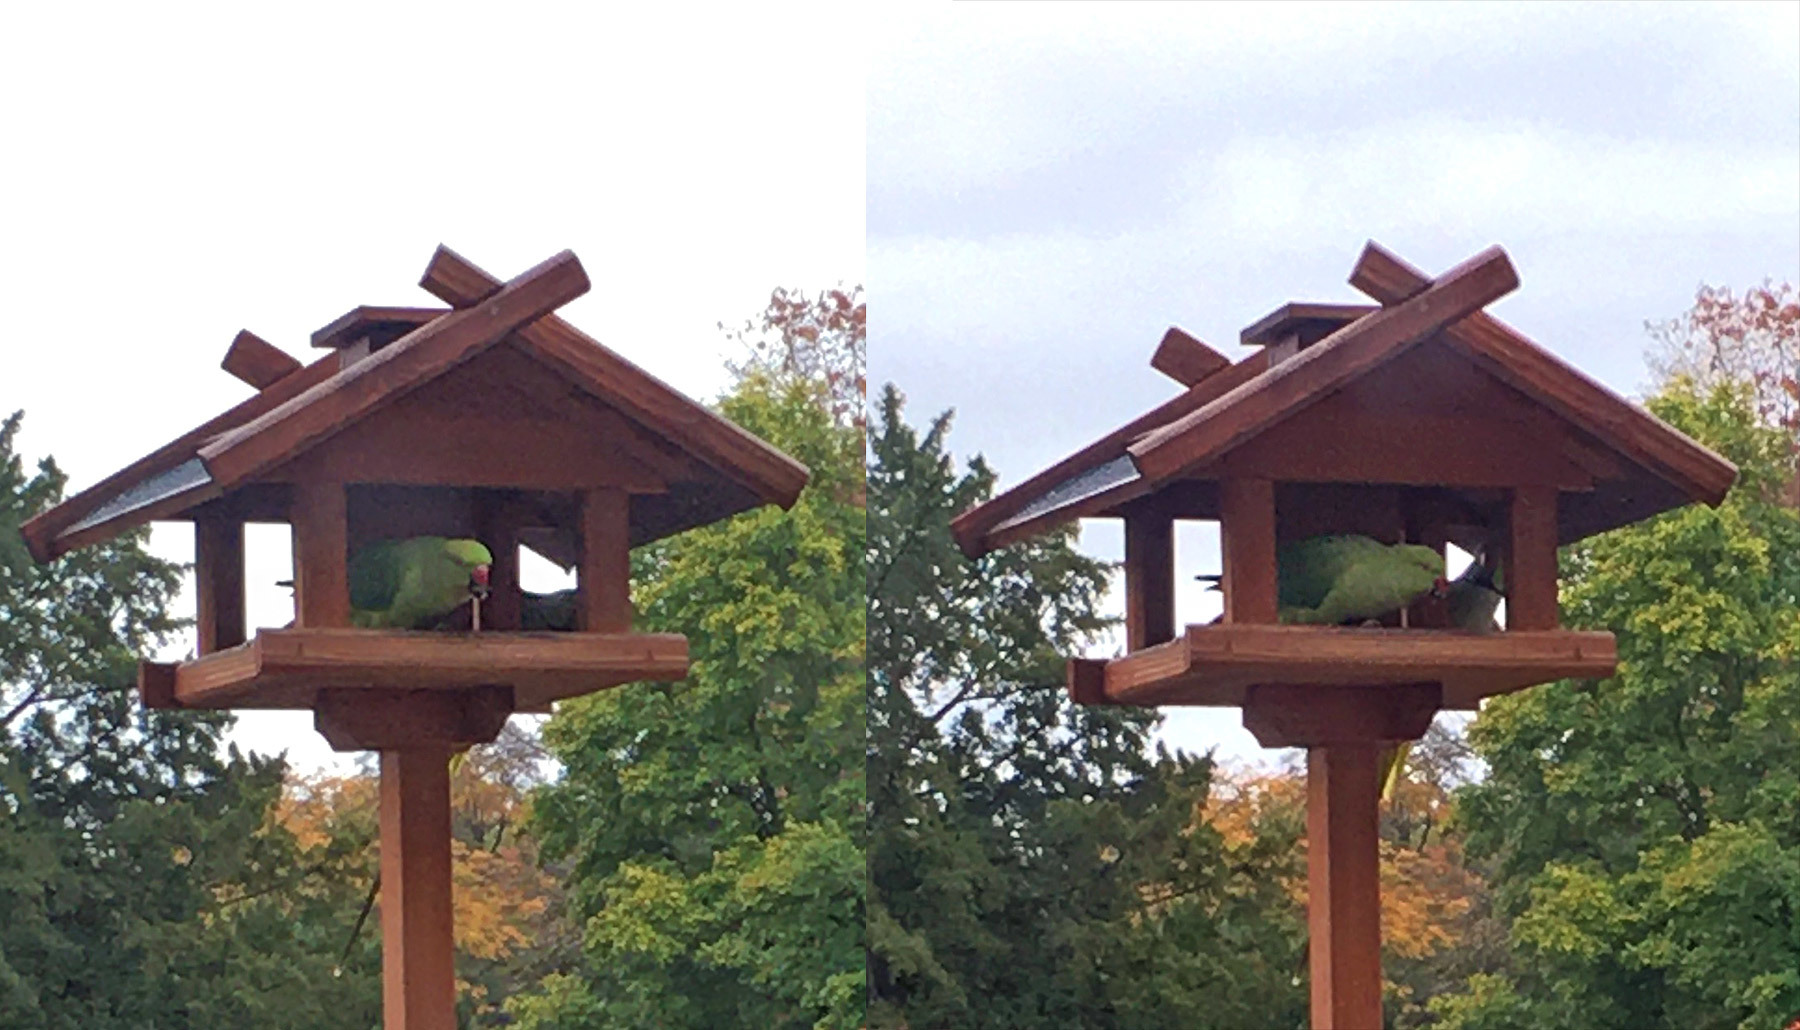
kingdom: Animalia
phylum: Chordata
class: Aves
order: Psittaciformes
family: Psittacidae
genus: Psittacula
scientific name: Psittacula krameri
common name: Rose-ringed parakeet
